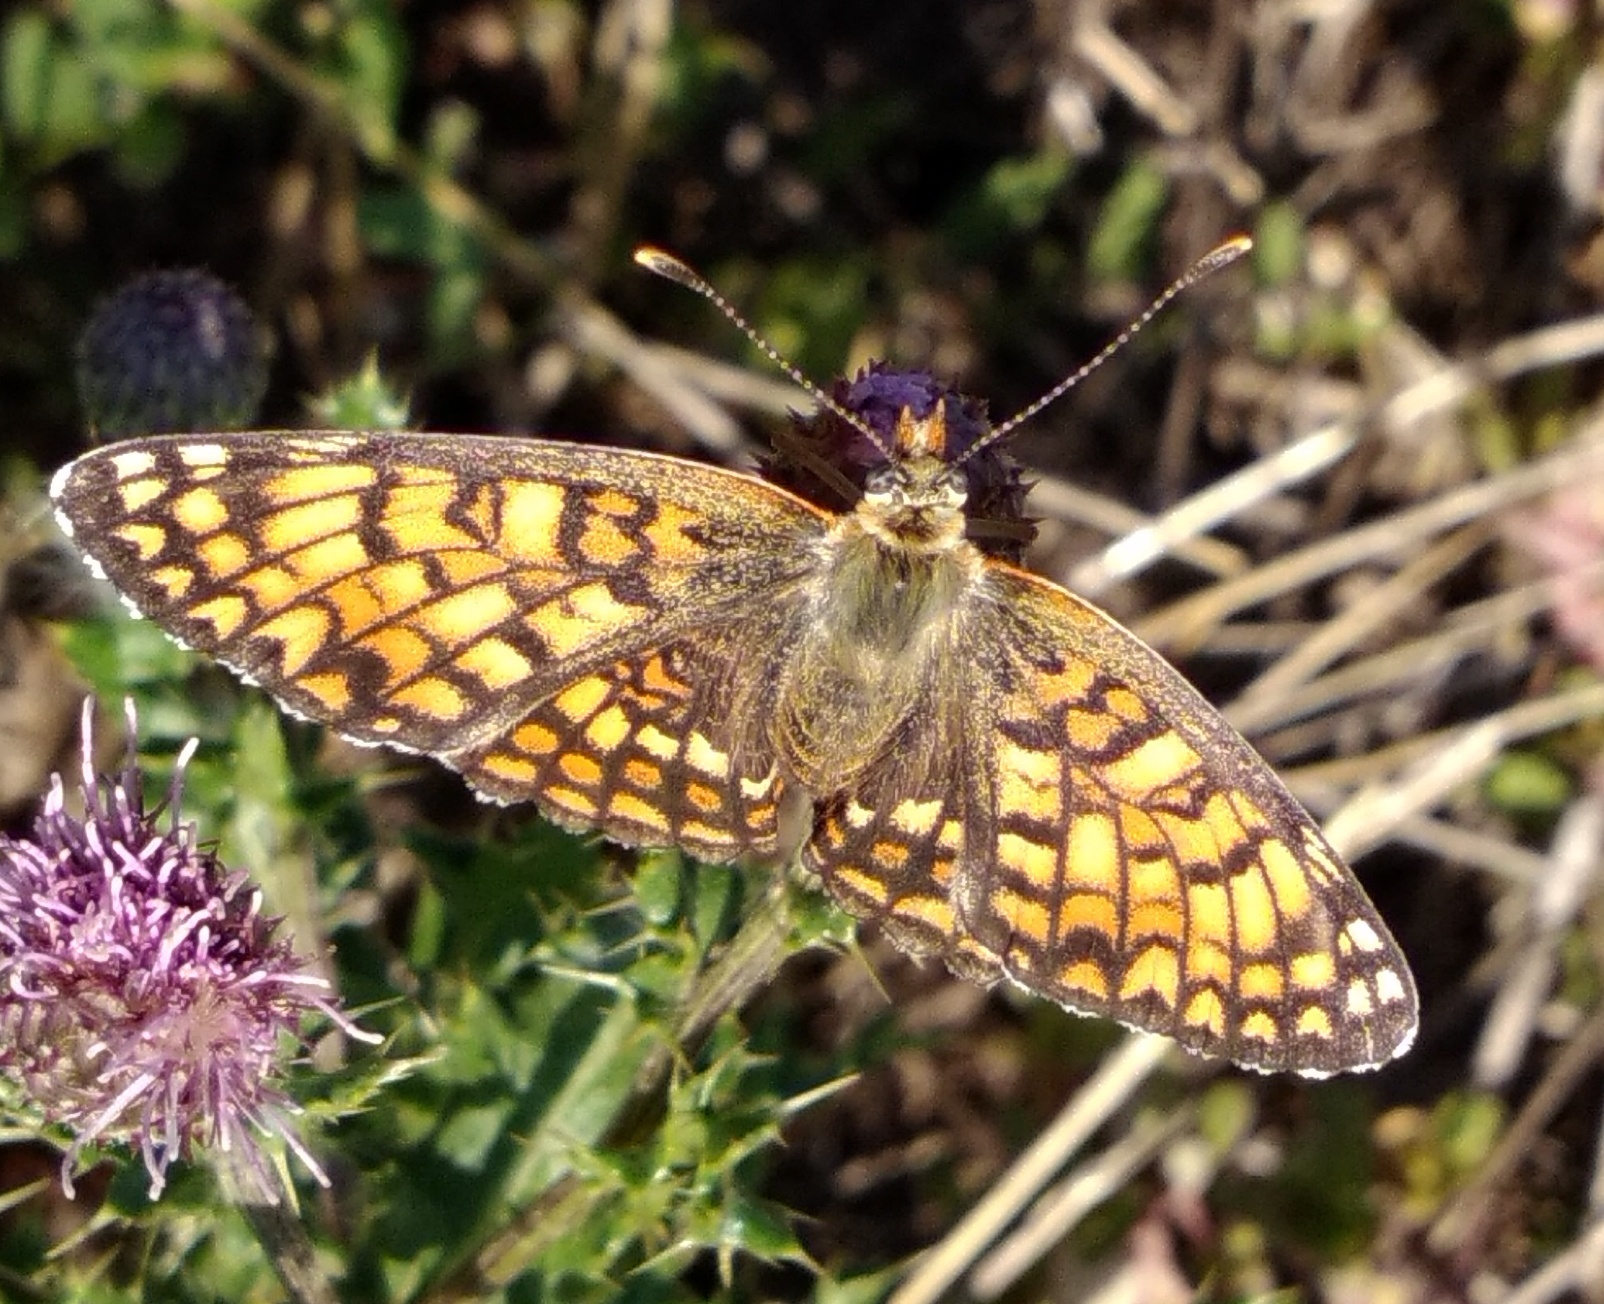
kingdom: Animalia
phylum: Arthropoda
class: Insecta
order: Lepidoptera
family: Nymphalidae
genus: Melitaea
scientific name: Melitaea phoebe
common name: Knapweed fritillary
